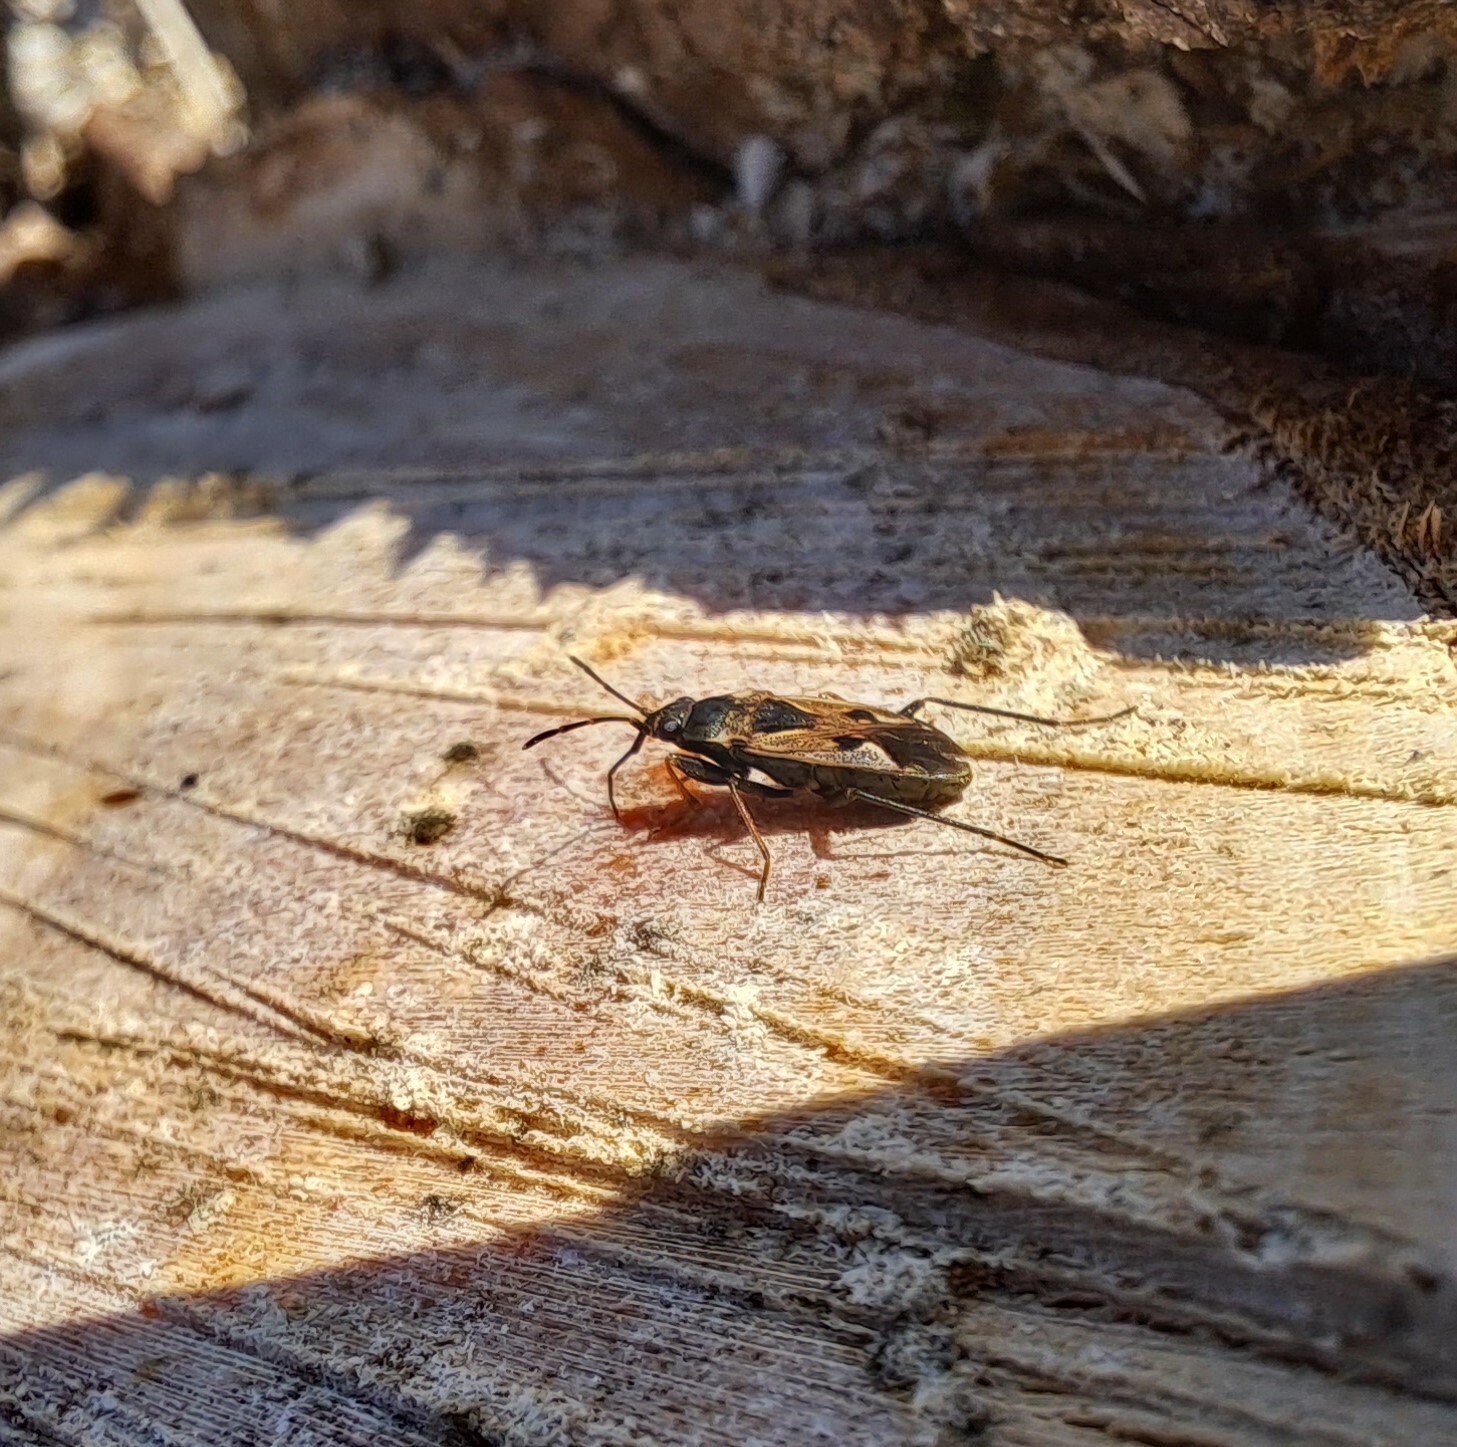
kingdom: Animalia
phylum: Arthropoda
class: Insecta
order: Hemiptera
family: Rhyparochromidae
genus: Rhyparochromus
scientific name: Rhyparochromus vulgaris
